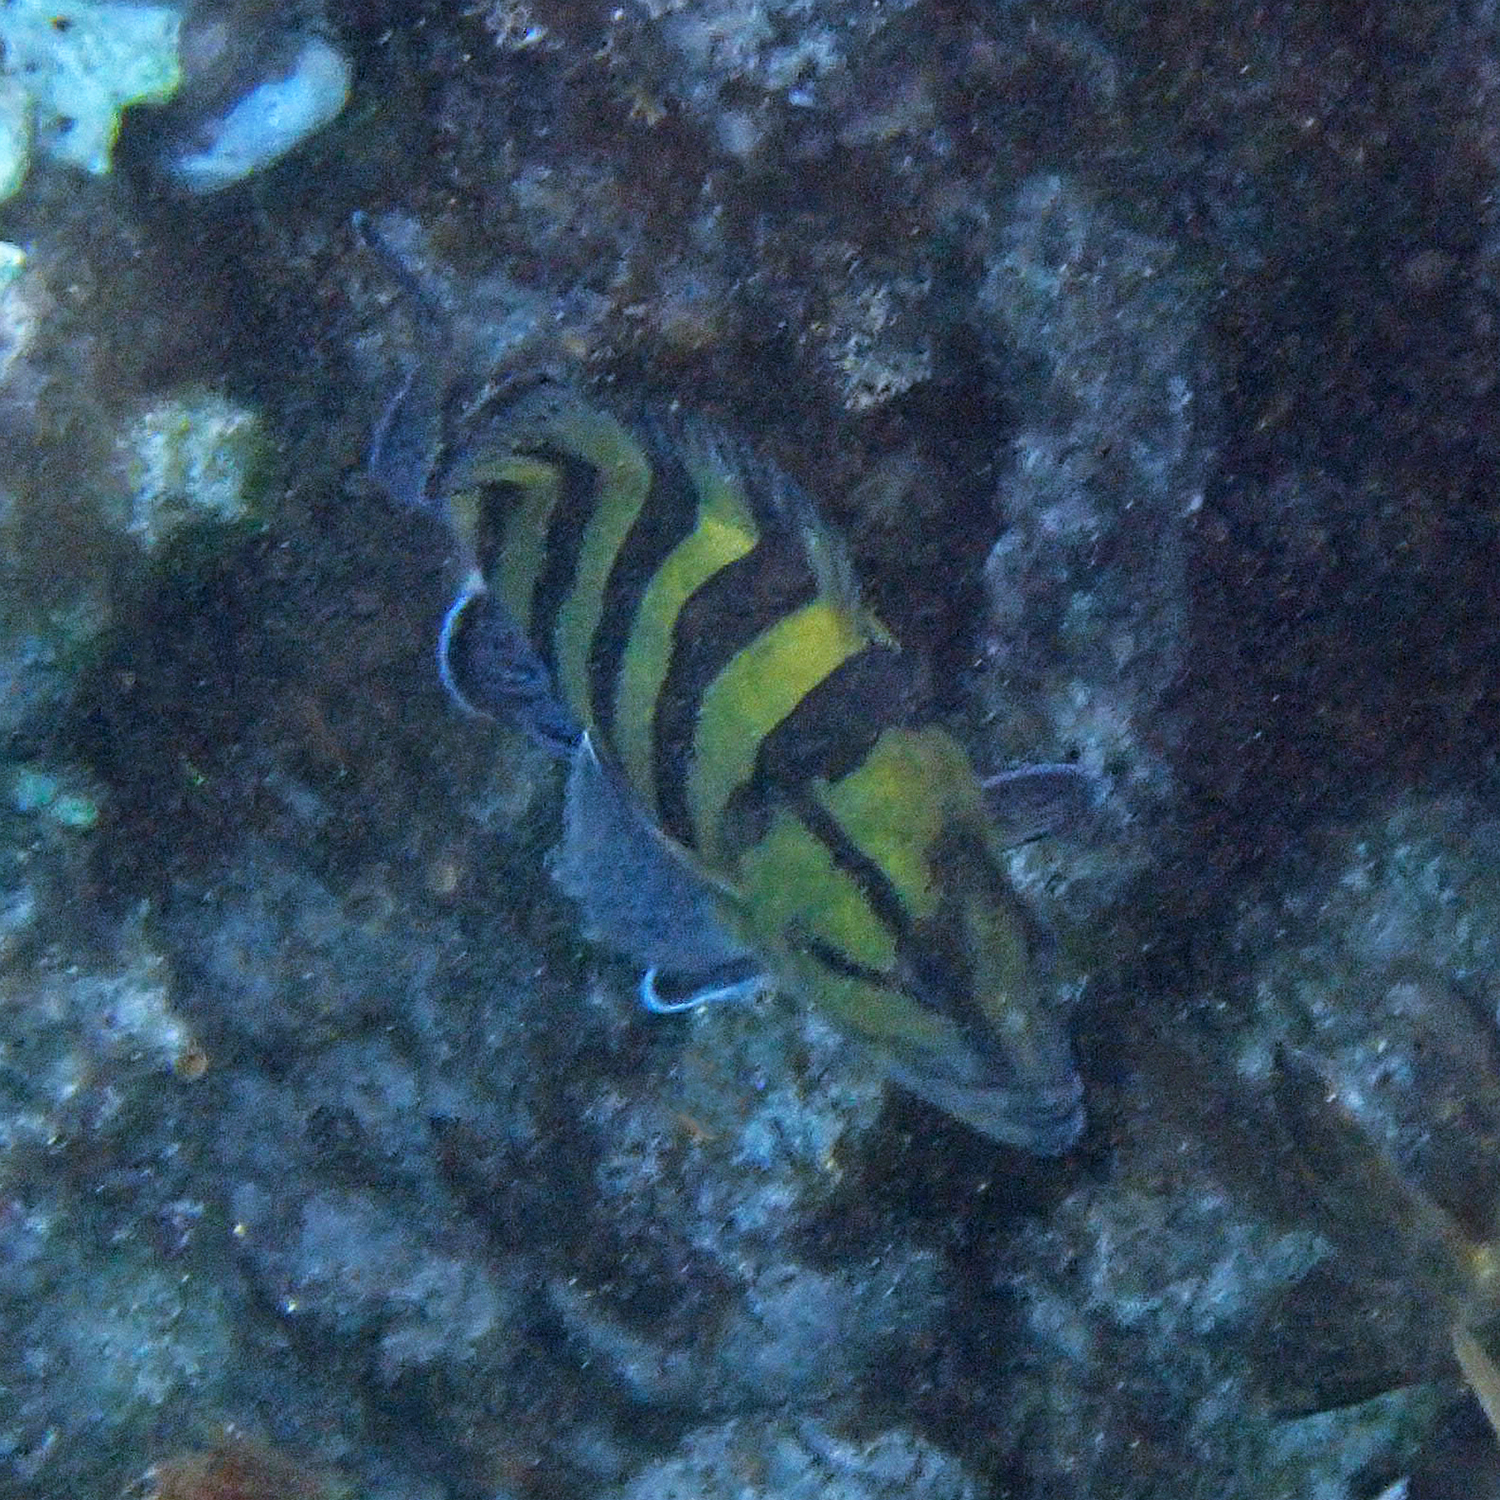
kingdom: Animalia
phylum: Chordata
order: Perciformes
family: Serranidae
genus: Acanthistius
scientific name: Acanthistius cinctus
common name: Girdled rock cod
